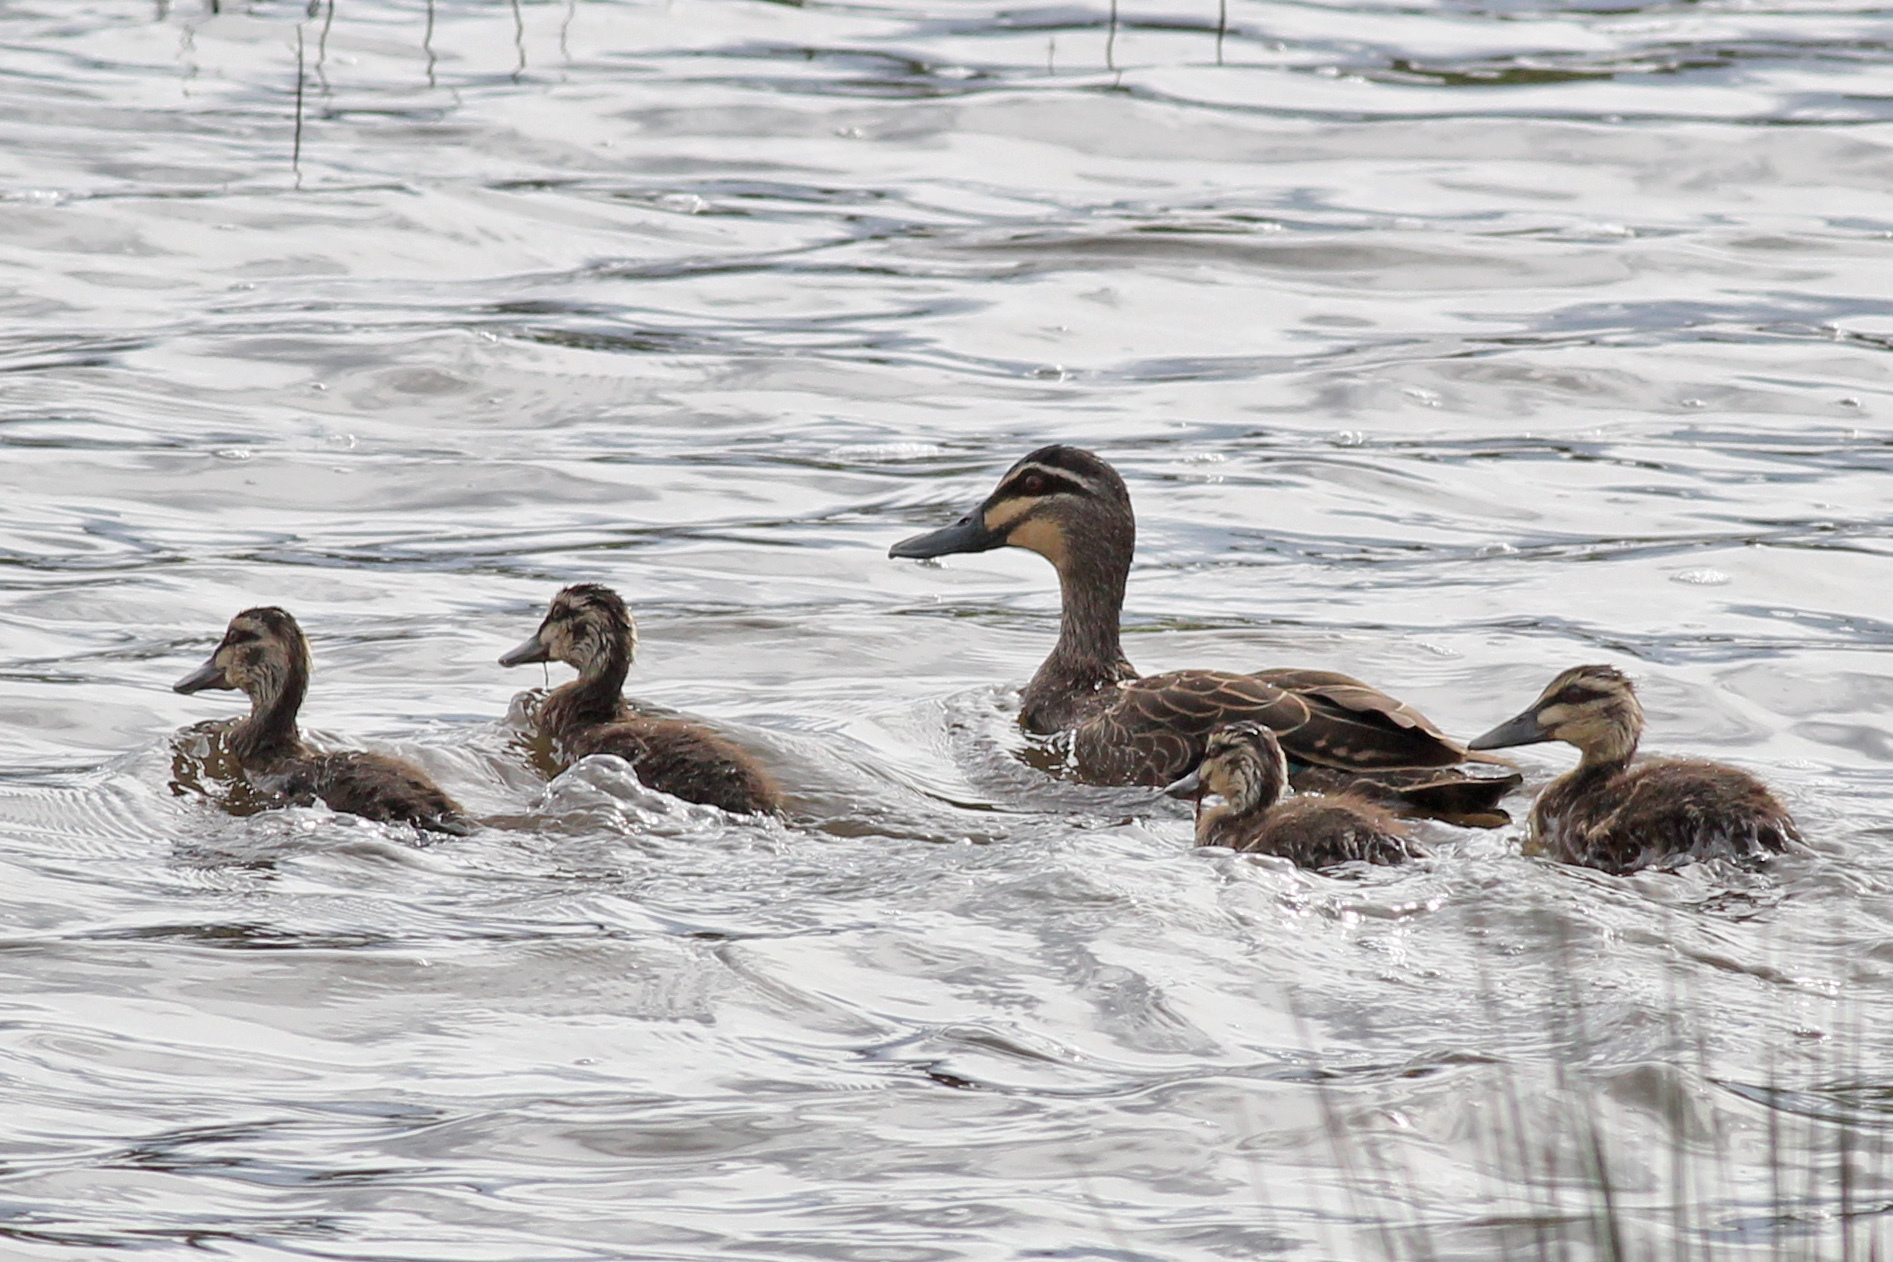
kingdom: Animalia
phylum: Chordata
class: Aves
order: Anseriformes
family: Anatidae
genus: Anas
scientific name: Anas superciliosa
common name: Pacific black duck
